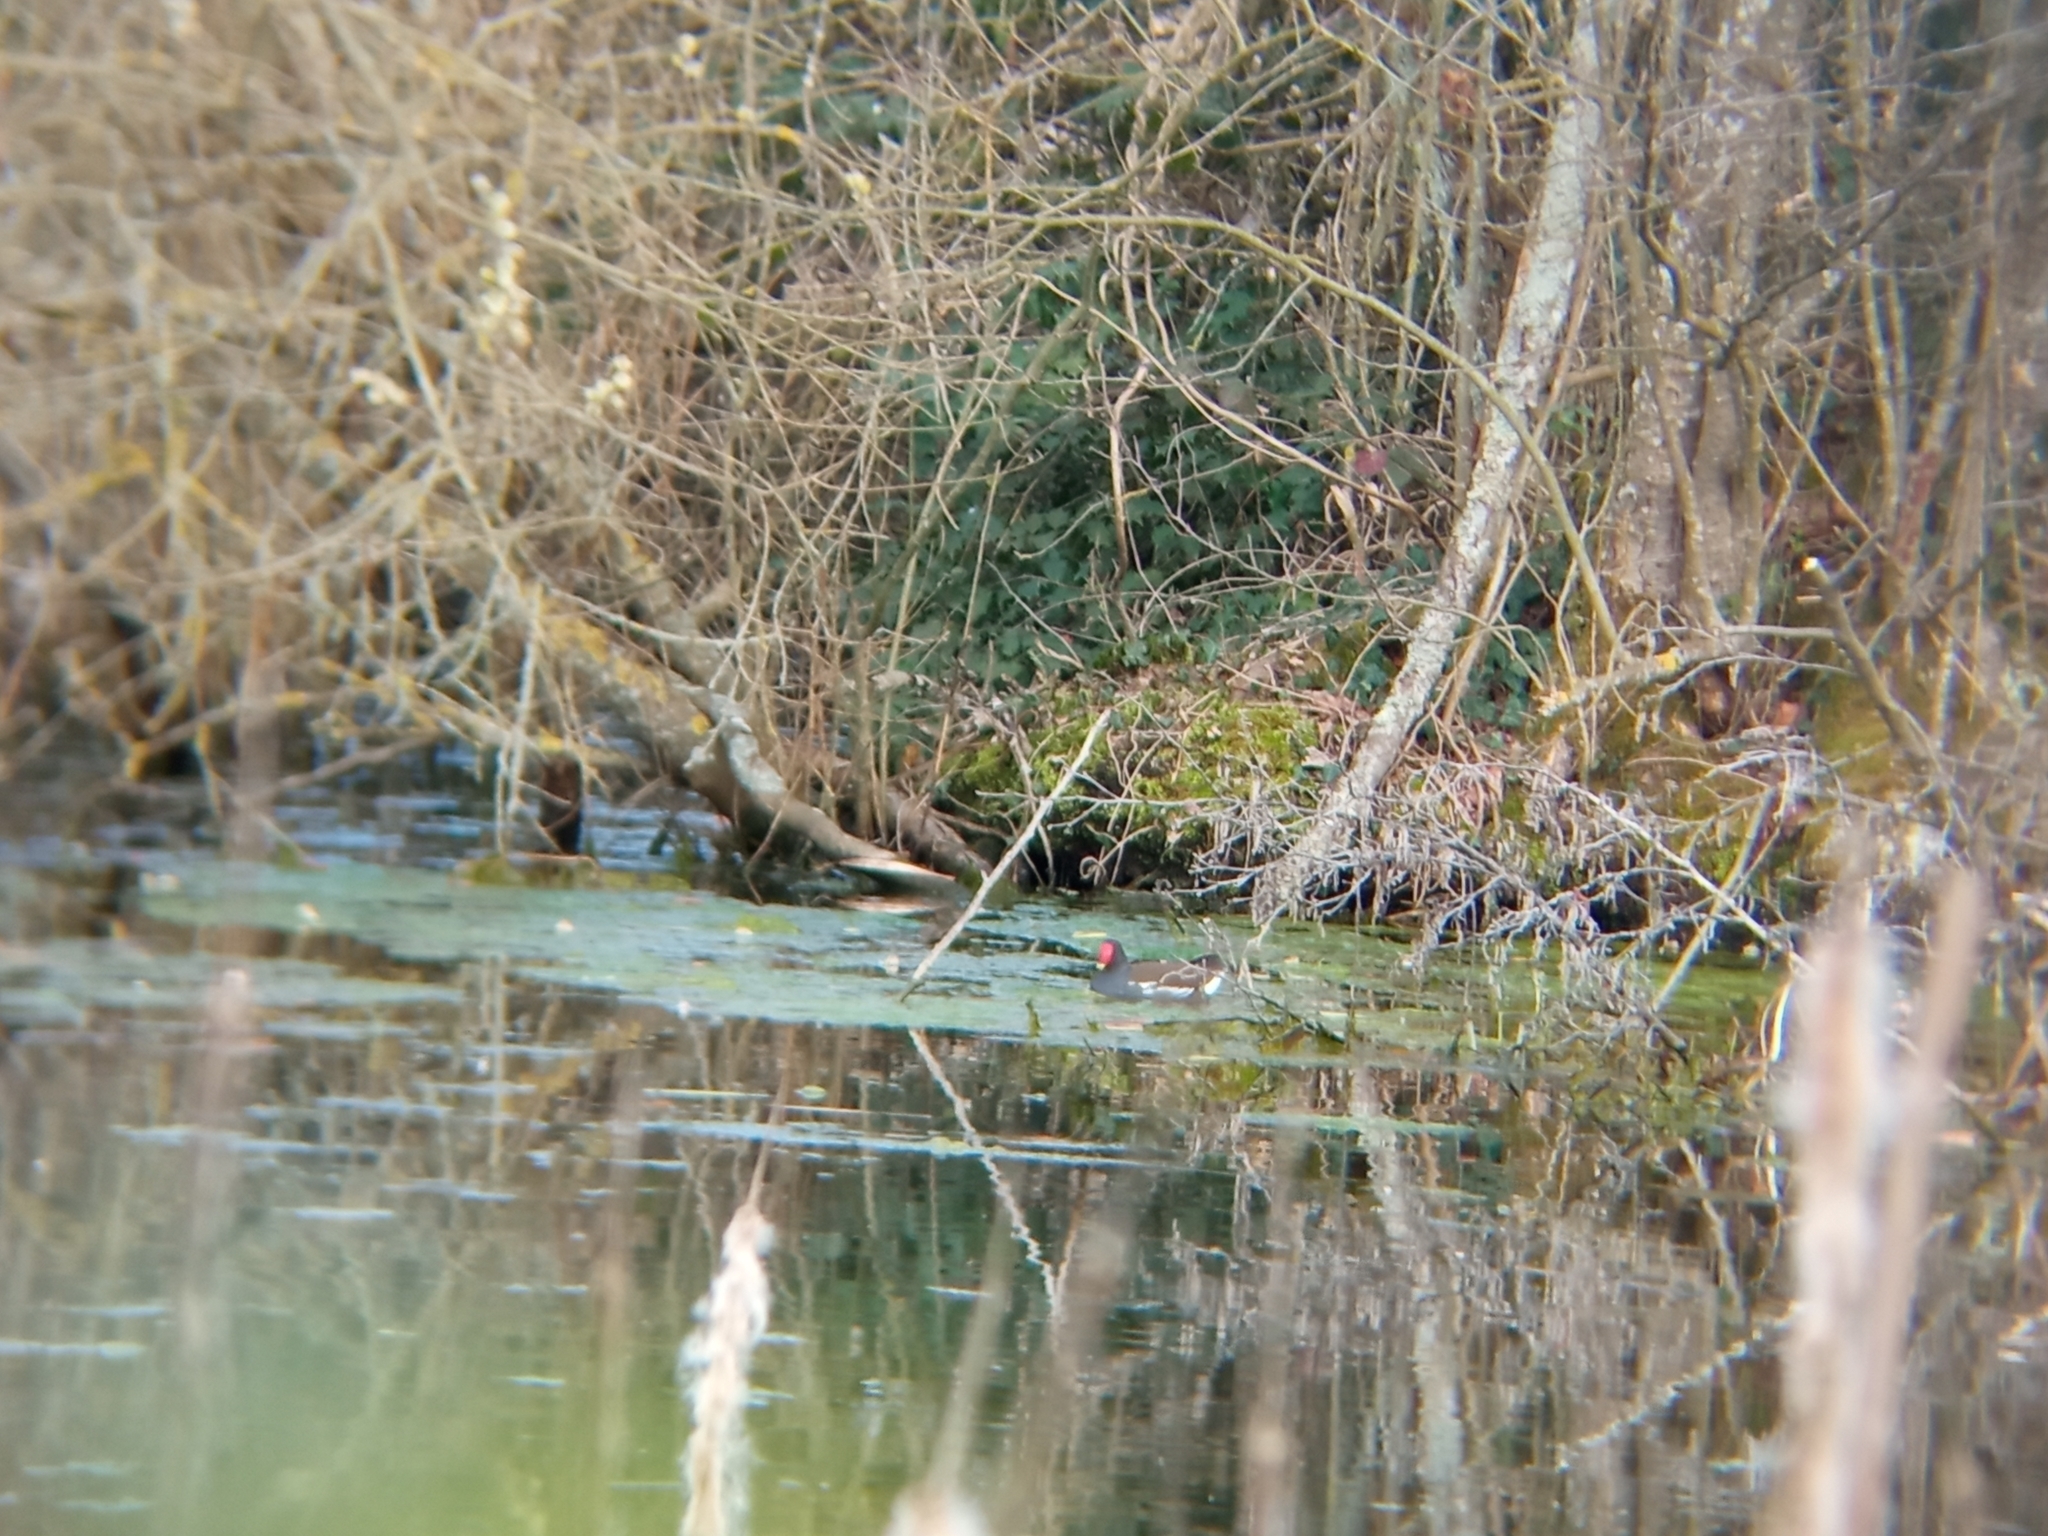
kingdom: Animalia
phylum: Chordata
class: Aves
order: Gruiformes
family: Rallidae
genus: Gallinula
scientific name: Gallinula chloropus
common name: Common moorhen
